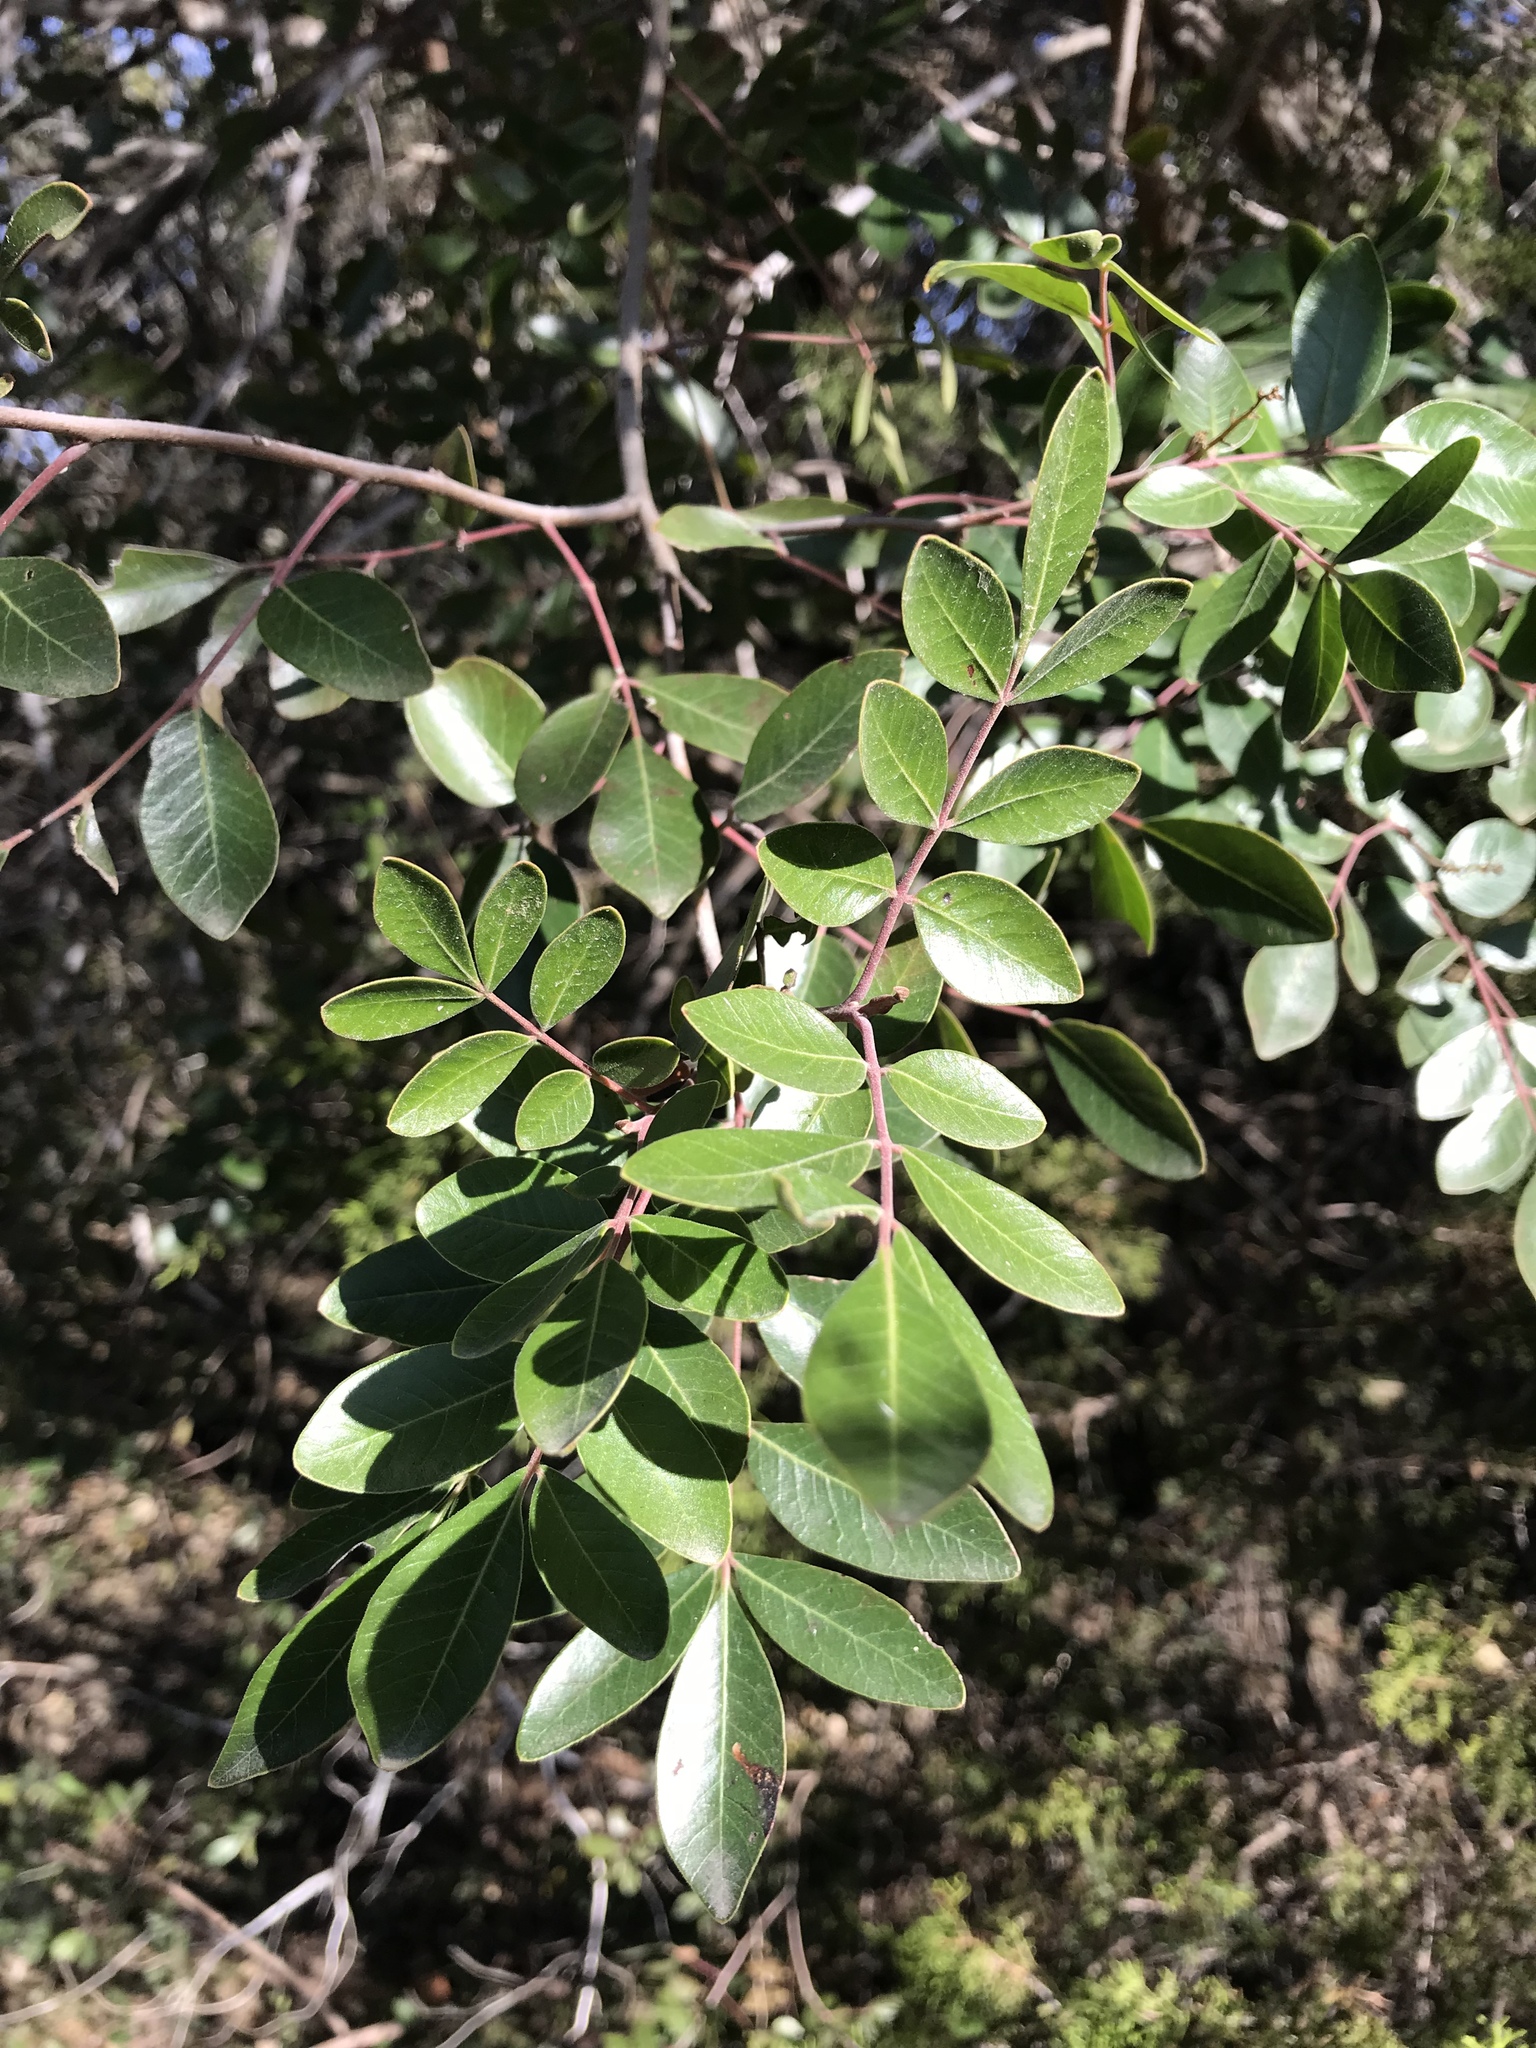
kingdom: Plantae
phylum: Tracheophyta
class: Magnoliopsida
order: Sapindales
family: Anacardiaceae
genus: Rhus
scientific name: Rhus virens
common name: Evergreen sumac
